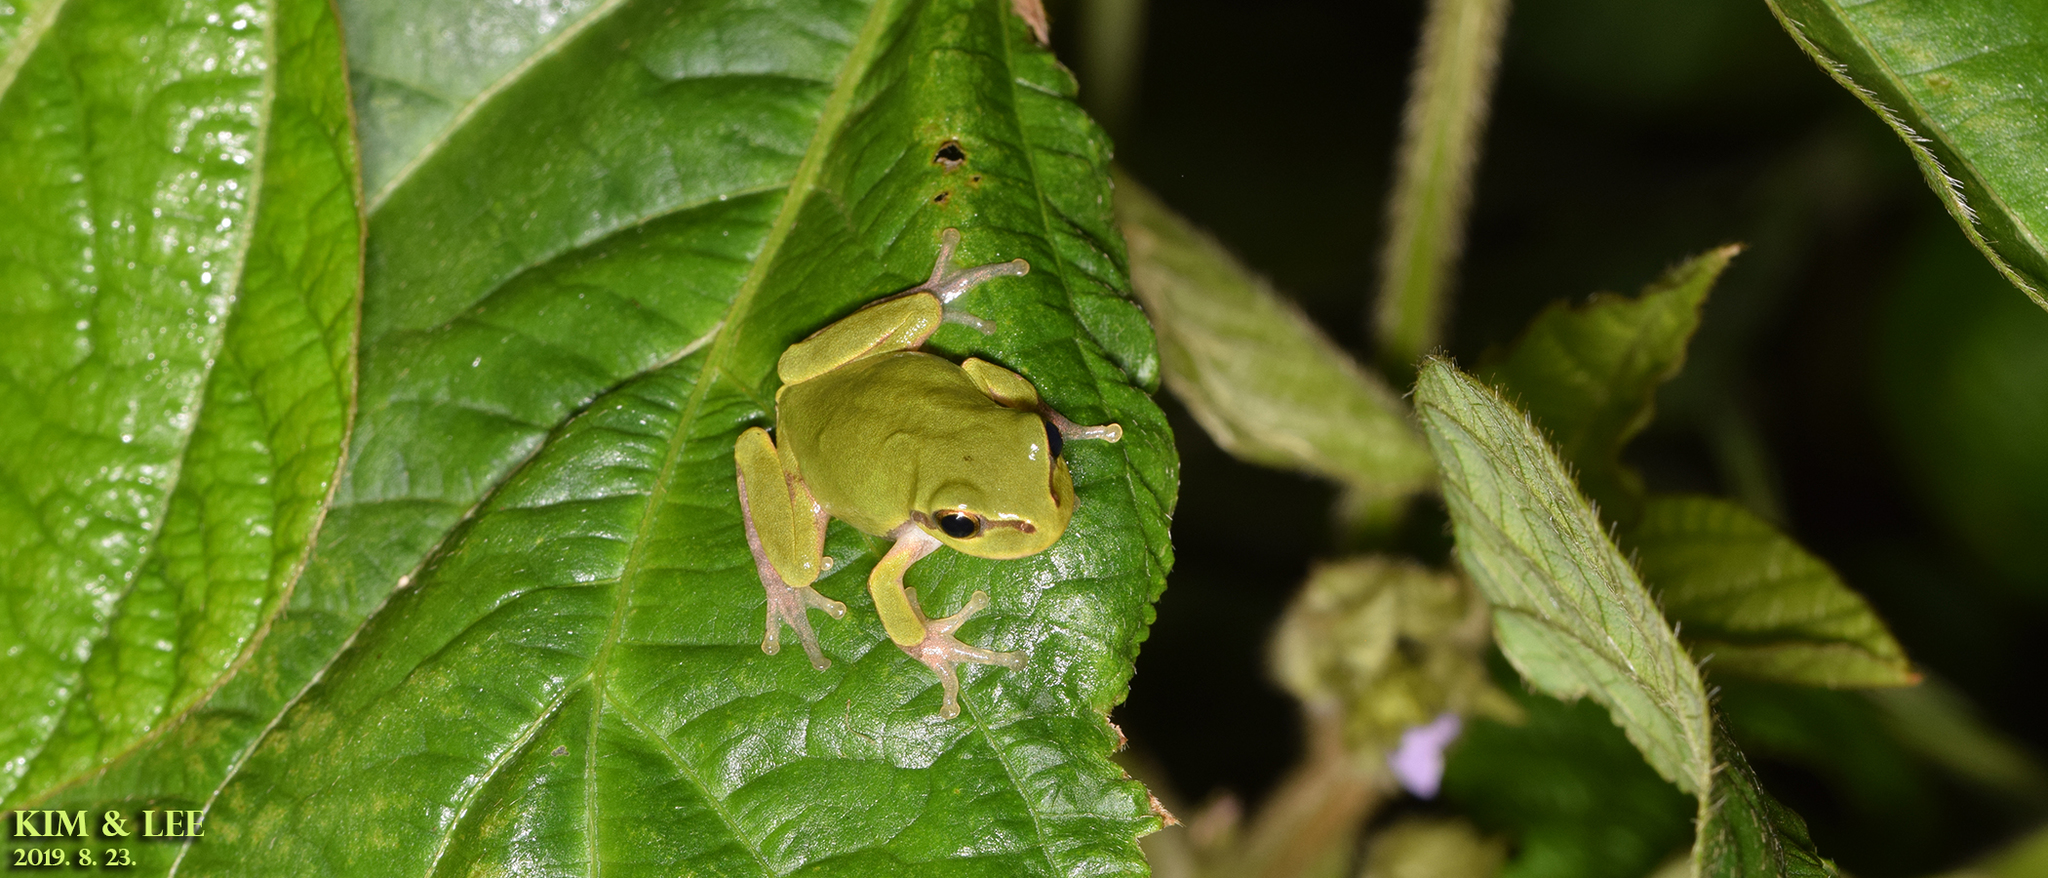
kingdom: Animalia
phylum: Chordata
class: Amphibia
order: Anura
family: Hylidae
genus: Dryophytes
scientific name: Dryophytes japonicus
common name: Japanese treefrog
